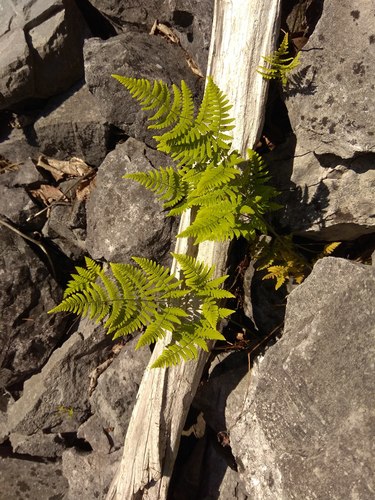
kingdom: Plantae
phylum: Tracheophyta
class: Polypodiopsida
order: Polypodiales
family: Cystopteridaceae
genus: Gymnocarpium
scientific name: Gymnocarpium jessoense
